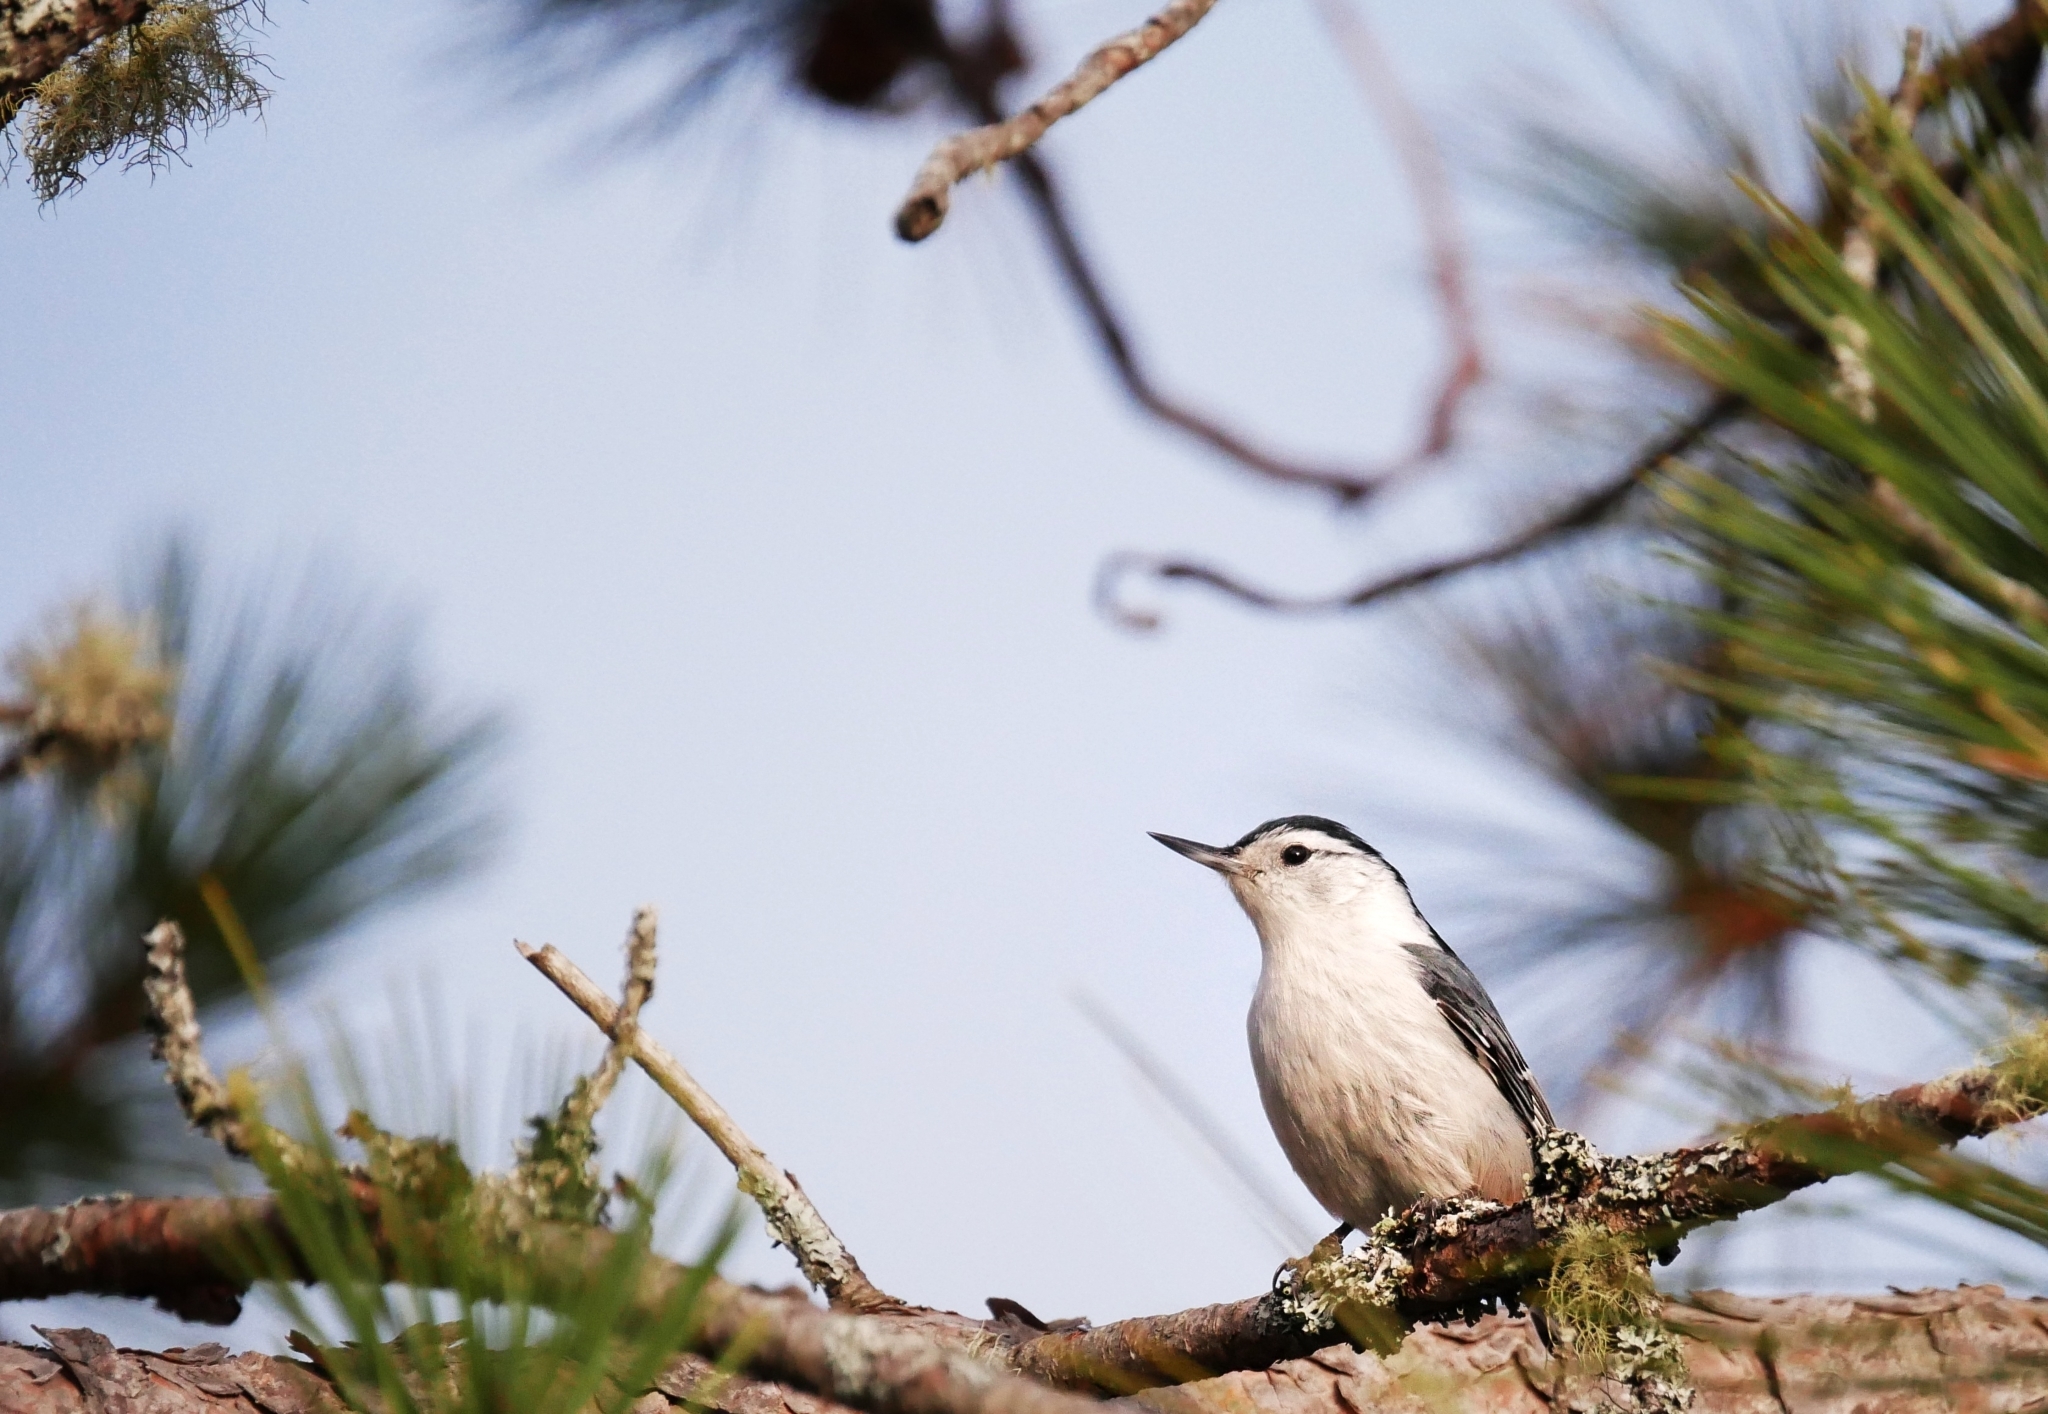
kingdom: Animalia
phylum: Chordata
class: Aves
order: Passeriformes
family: Sittidae
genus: Sitta
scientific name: Sitta carolinensis
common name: White-breasted nuthatch
